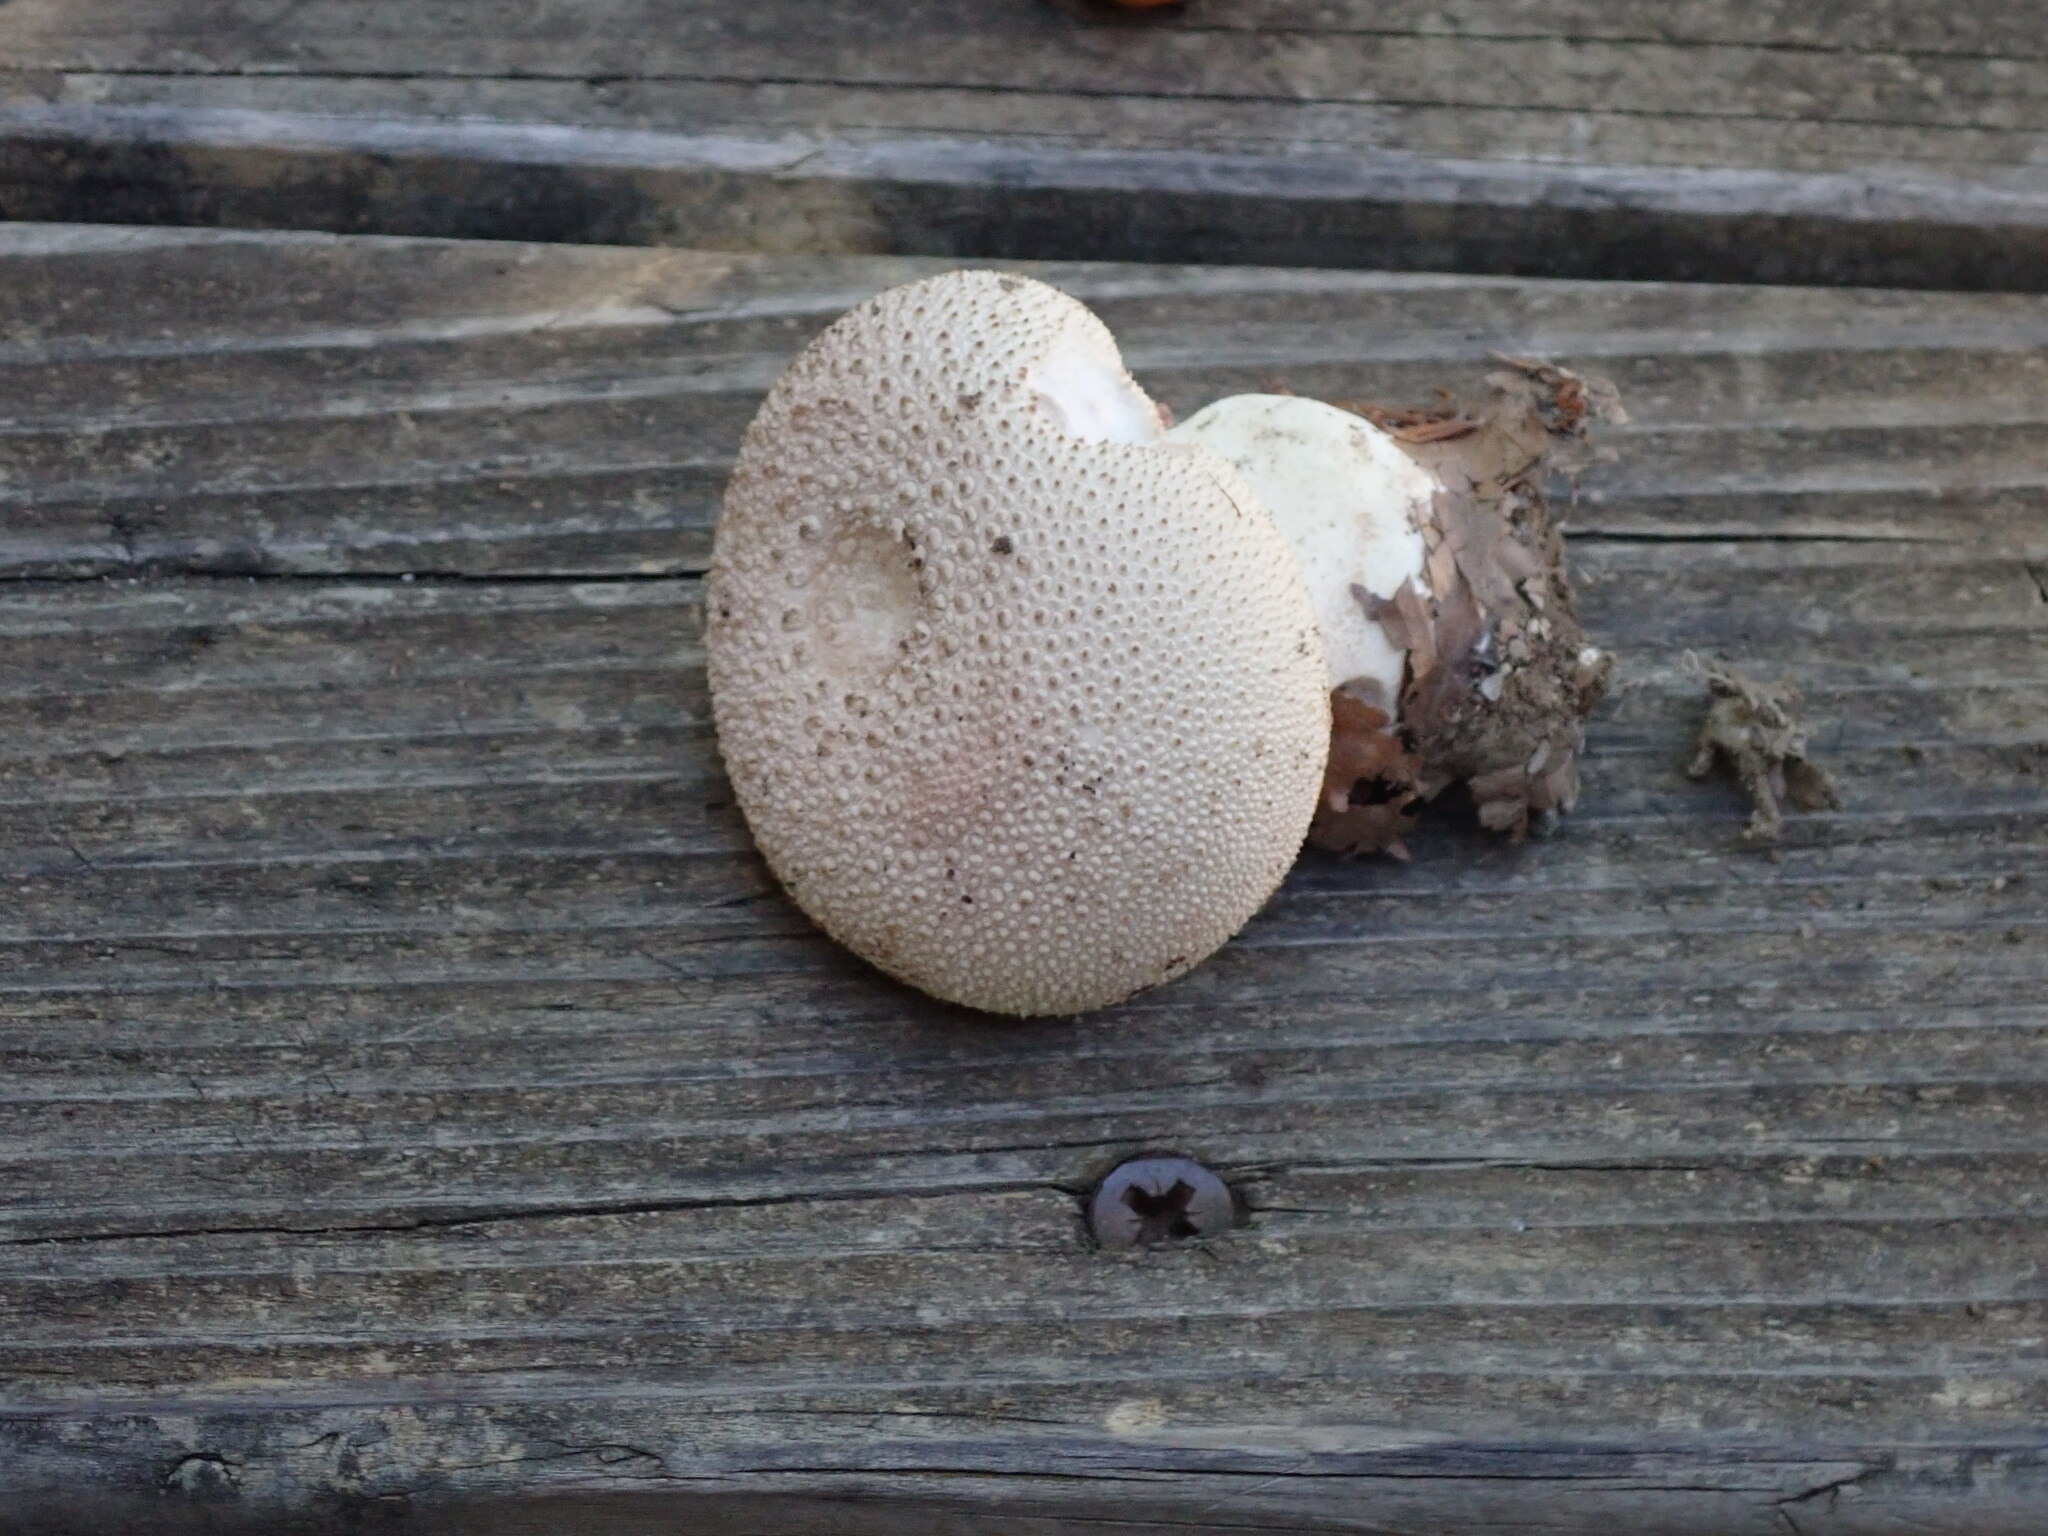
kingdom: Fungi
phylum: Basidiomycota
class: Agaricomycetes
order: Agaricales
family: Lycoperdaceae
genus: Lycoperdon
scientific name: Lycoperdon perlatum
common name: Common puffball
